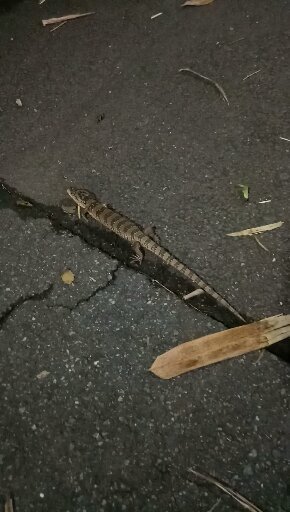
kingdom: Animalia
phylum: Chordata
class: Squamata
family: Scincidae
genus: Cyclodomorphus
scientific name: Cyclodomorphus gerrardii
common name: Pink-tongued lizard
